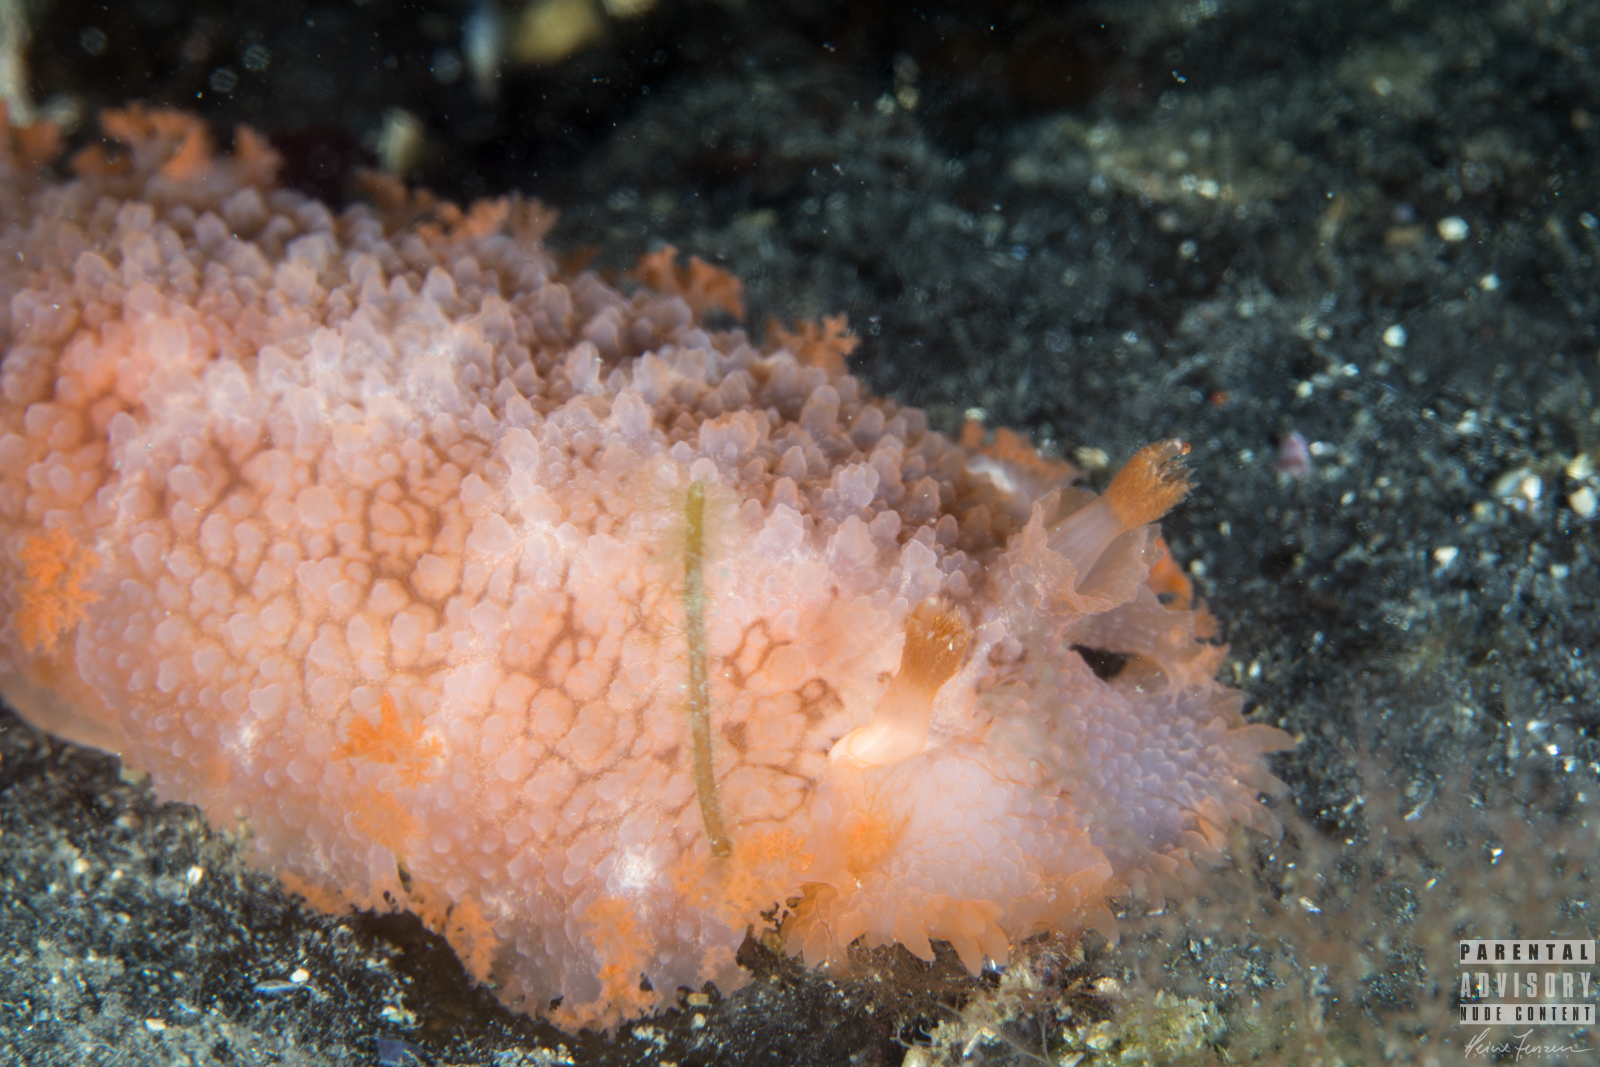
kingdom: Animalia
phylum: Mollusca
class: Gastropoda
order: Nudibranchia
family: Tritoniidae
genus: Tritonia
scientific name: Tritonia hombergii
